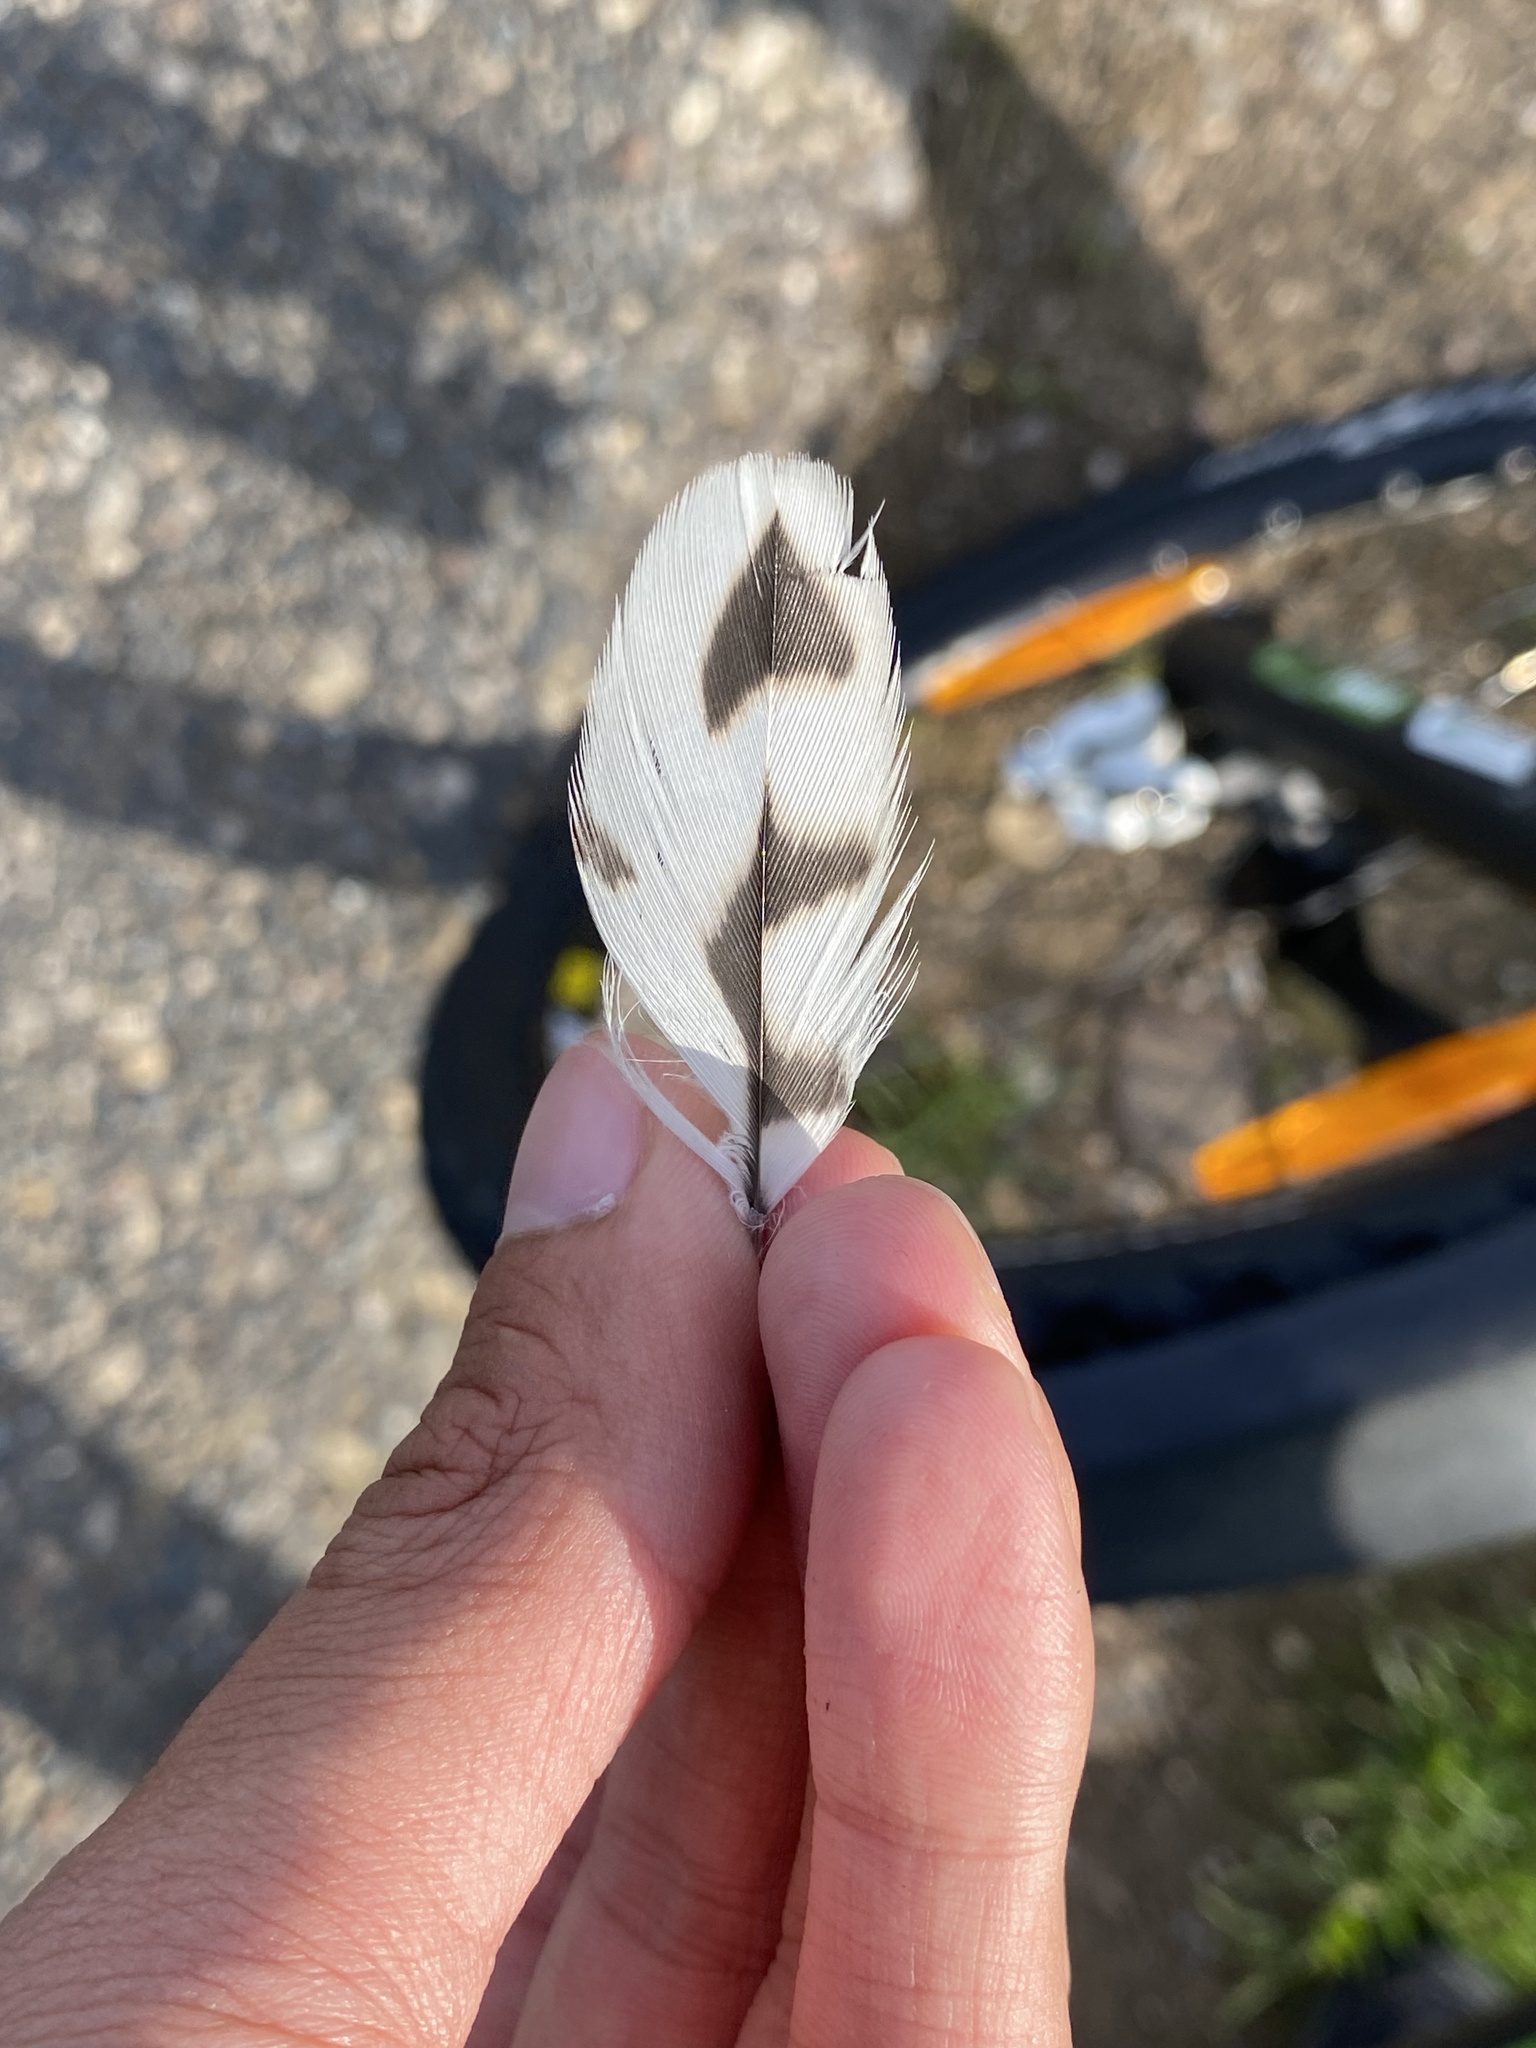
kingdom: Animalia
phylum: Chordata
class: Aves
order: Falconiformes
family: Falconidae
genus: Falco
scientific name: Falco tinnunculus
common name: Common kestrel
